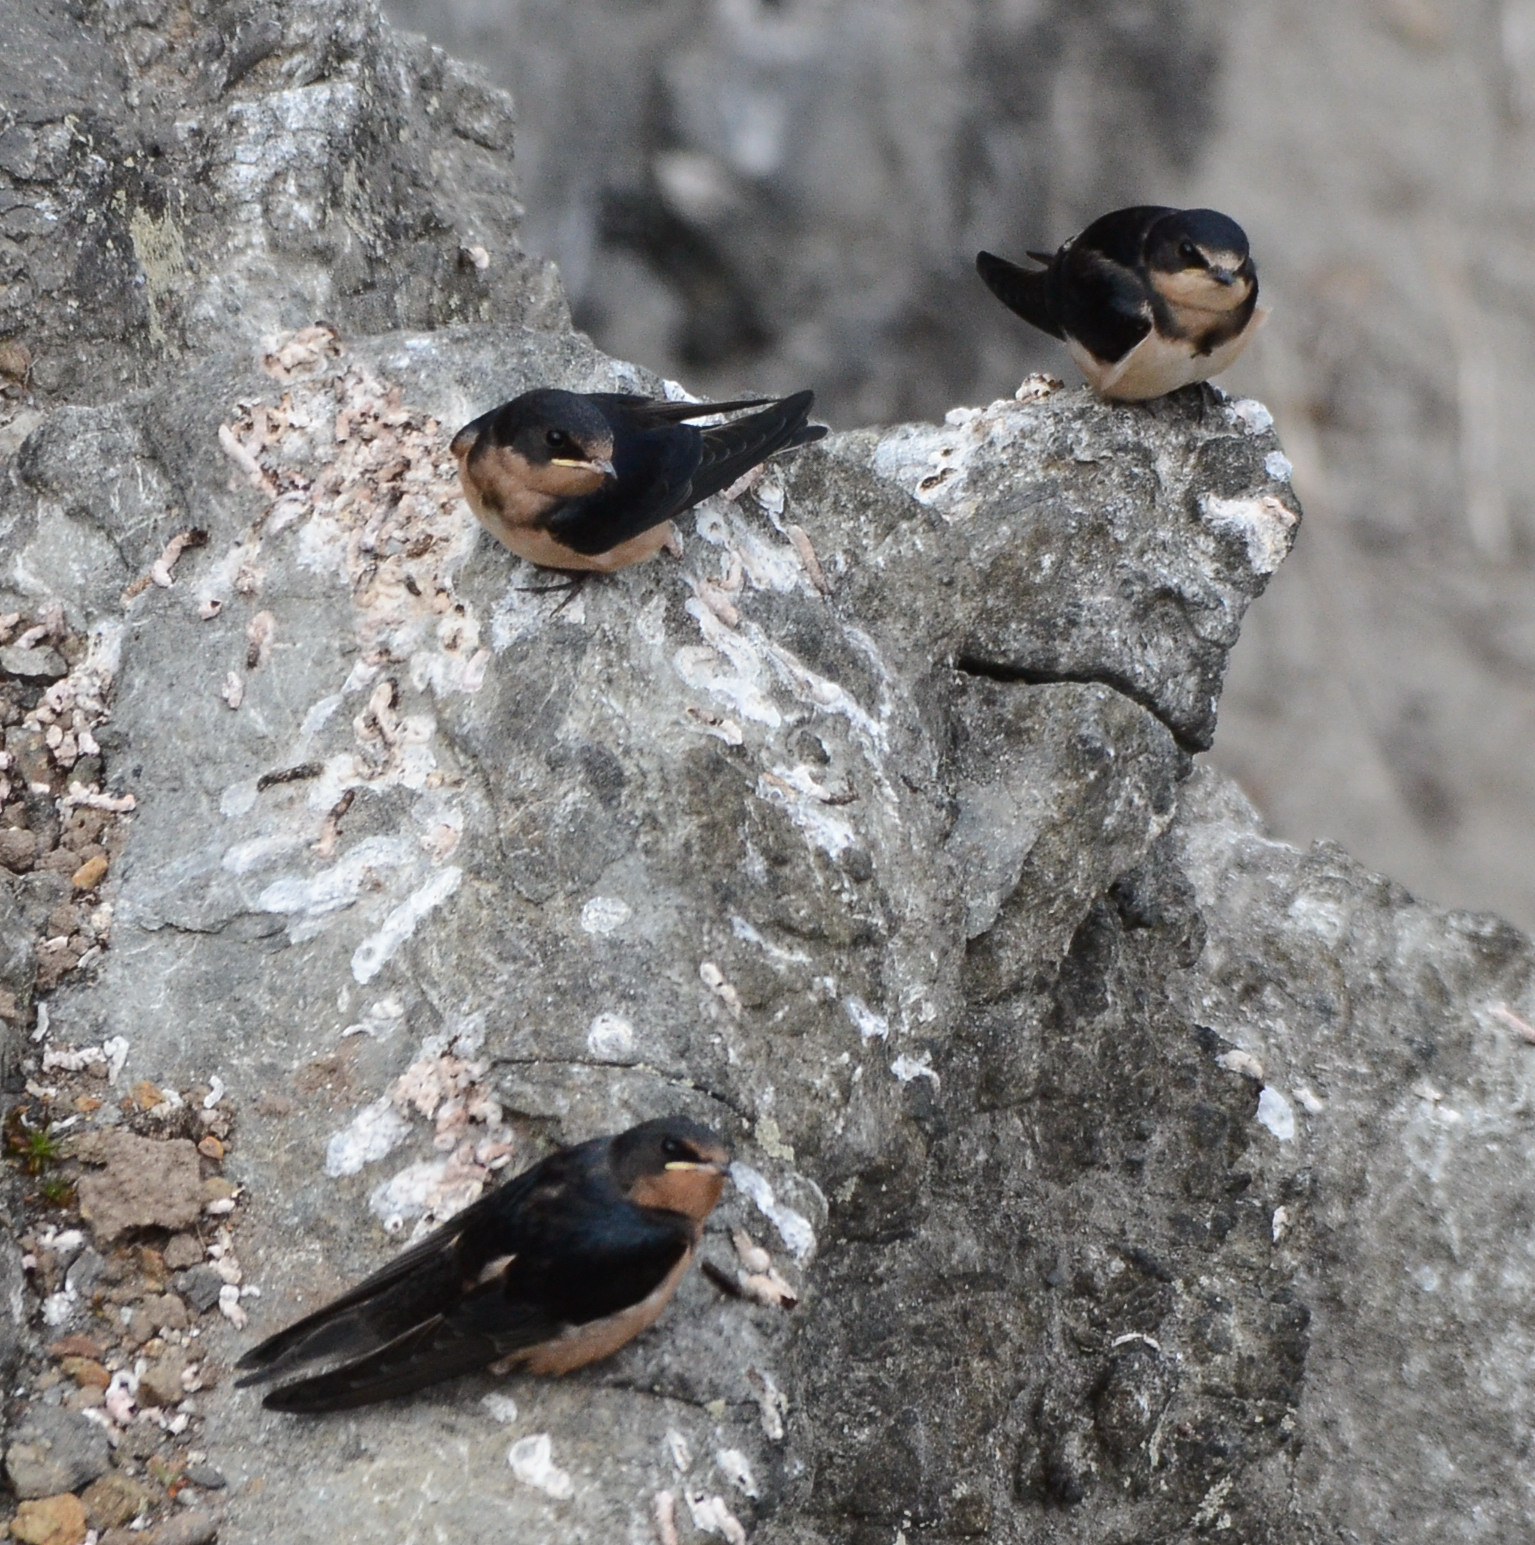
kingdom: Animalia
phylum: Chordata
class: Aves
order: Passeriformes
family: Hirundinidae
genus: Hirundo
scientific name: Hirundo rustica
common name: Barn swallow
